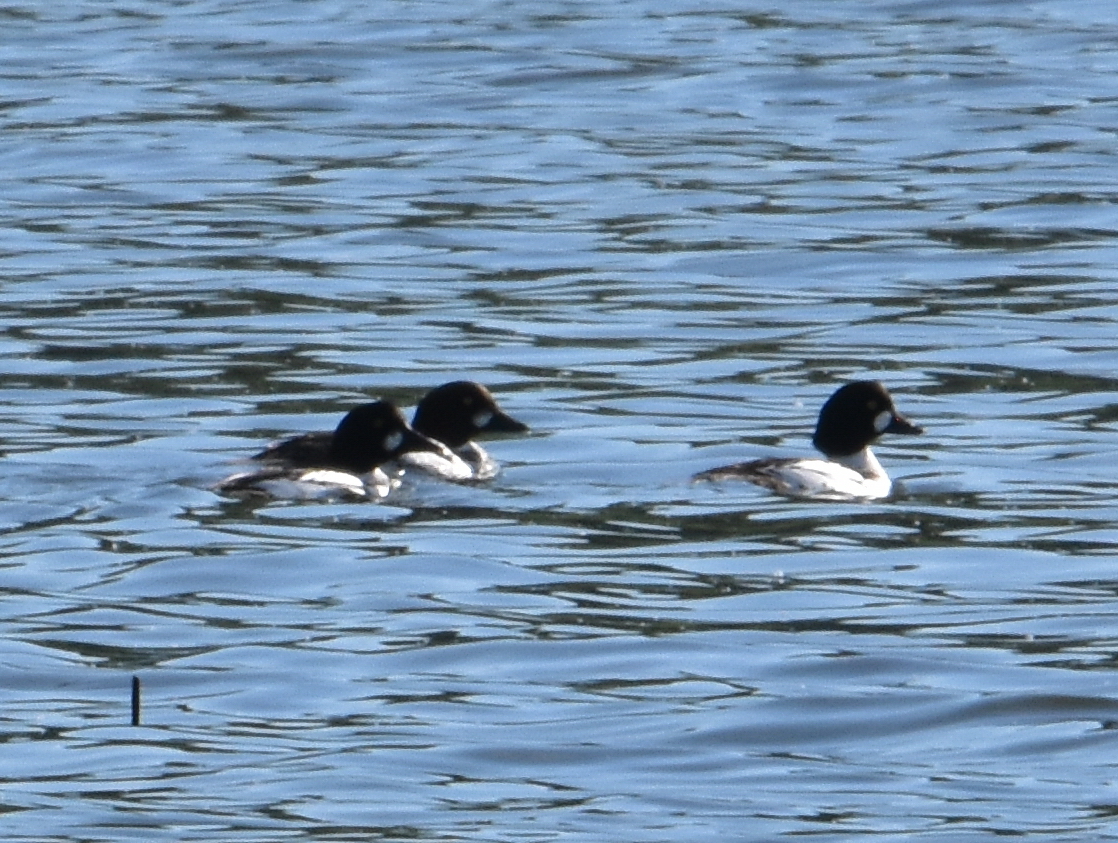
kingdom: Animalia
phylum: Chordata
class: Aves
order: Anseriformes
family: Anatidae
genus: Bucephala
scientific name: Bucephala clangula
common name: Common goldeneye
